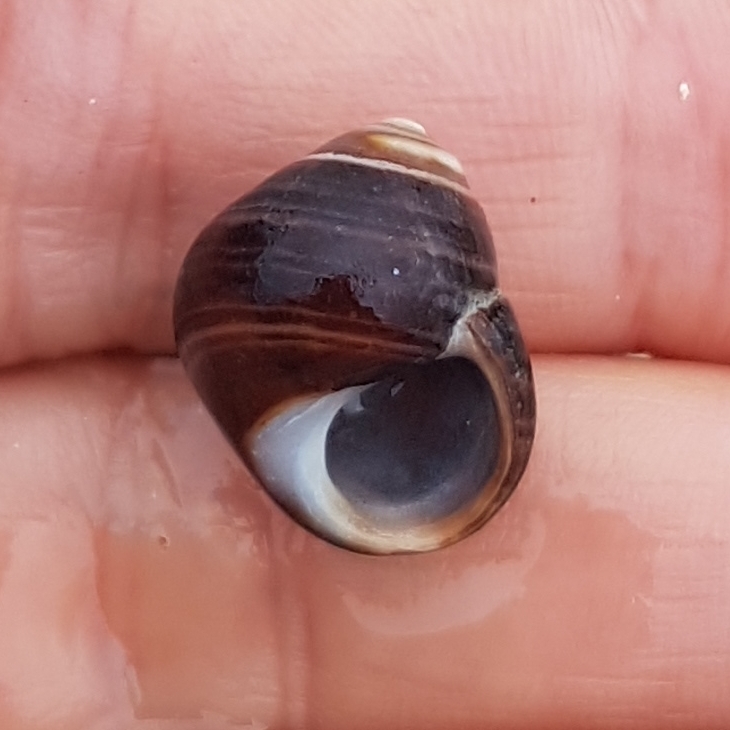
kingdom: Animalia
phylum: Mollusca
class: Gastropoda
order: Littorinimorpha
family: Littorinidae
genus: Littorina
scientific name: Littorina littorea
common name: Common periwinkle
